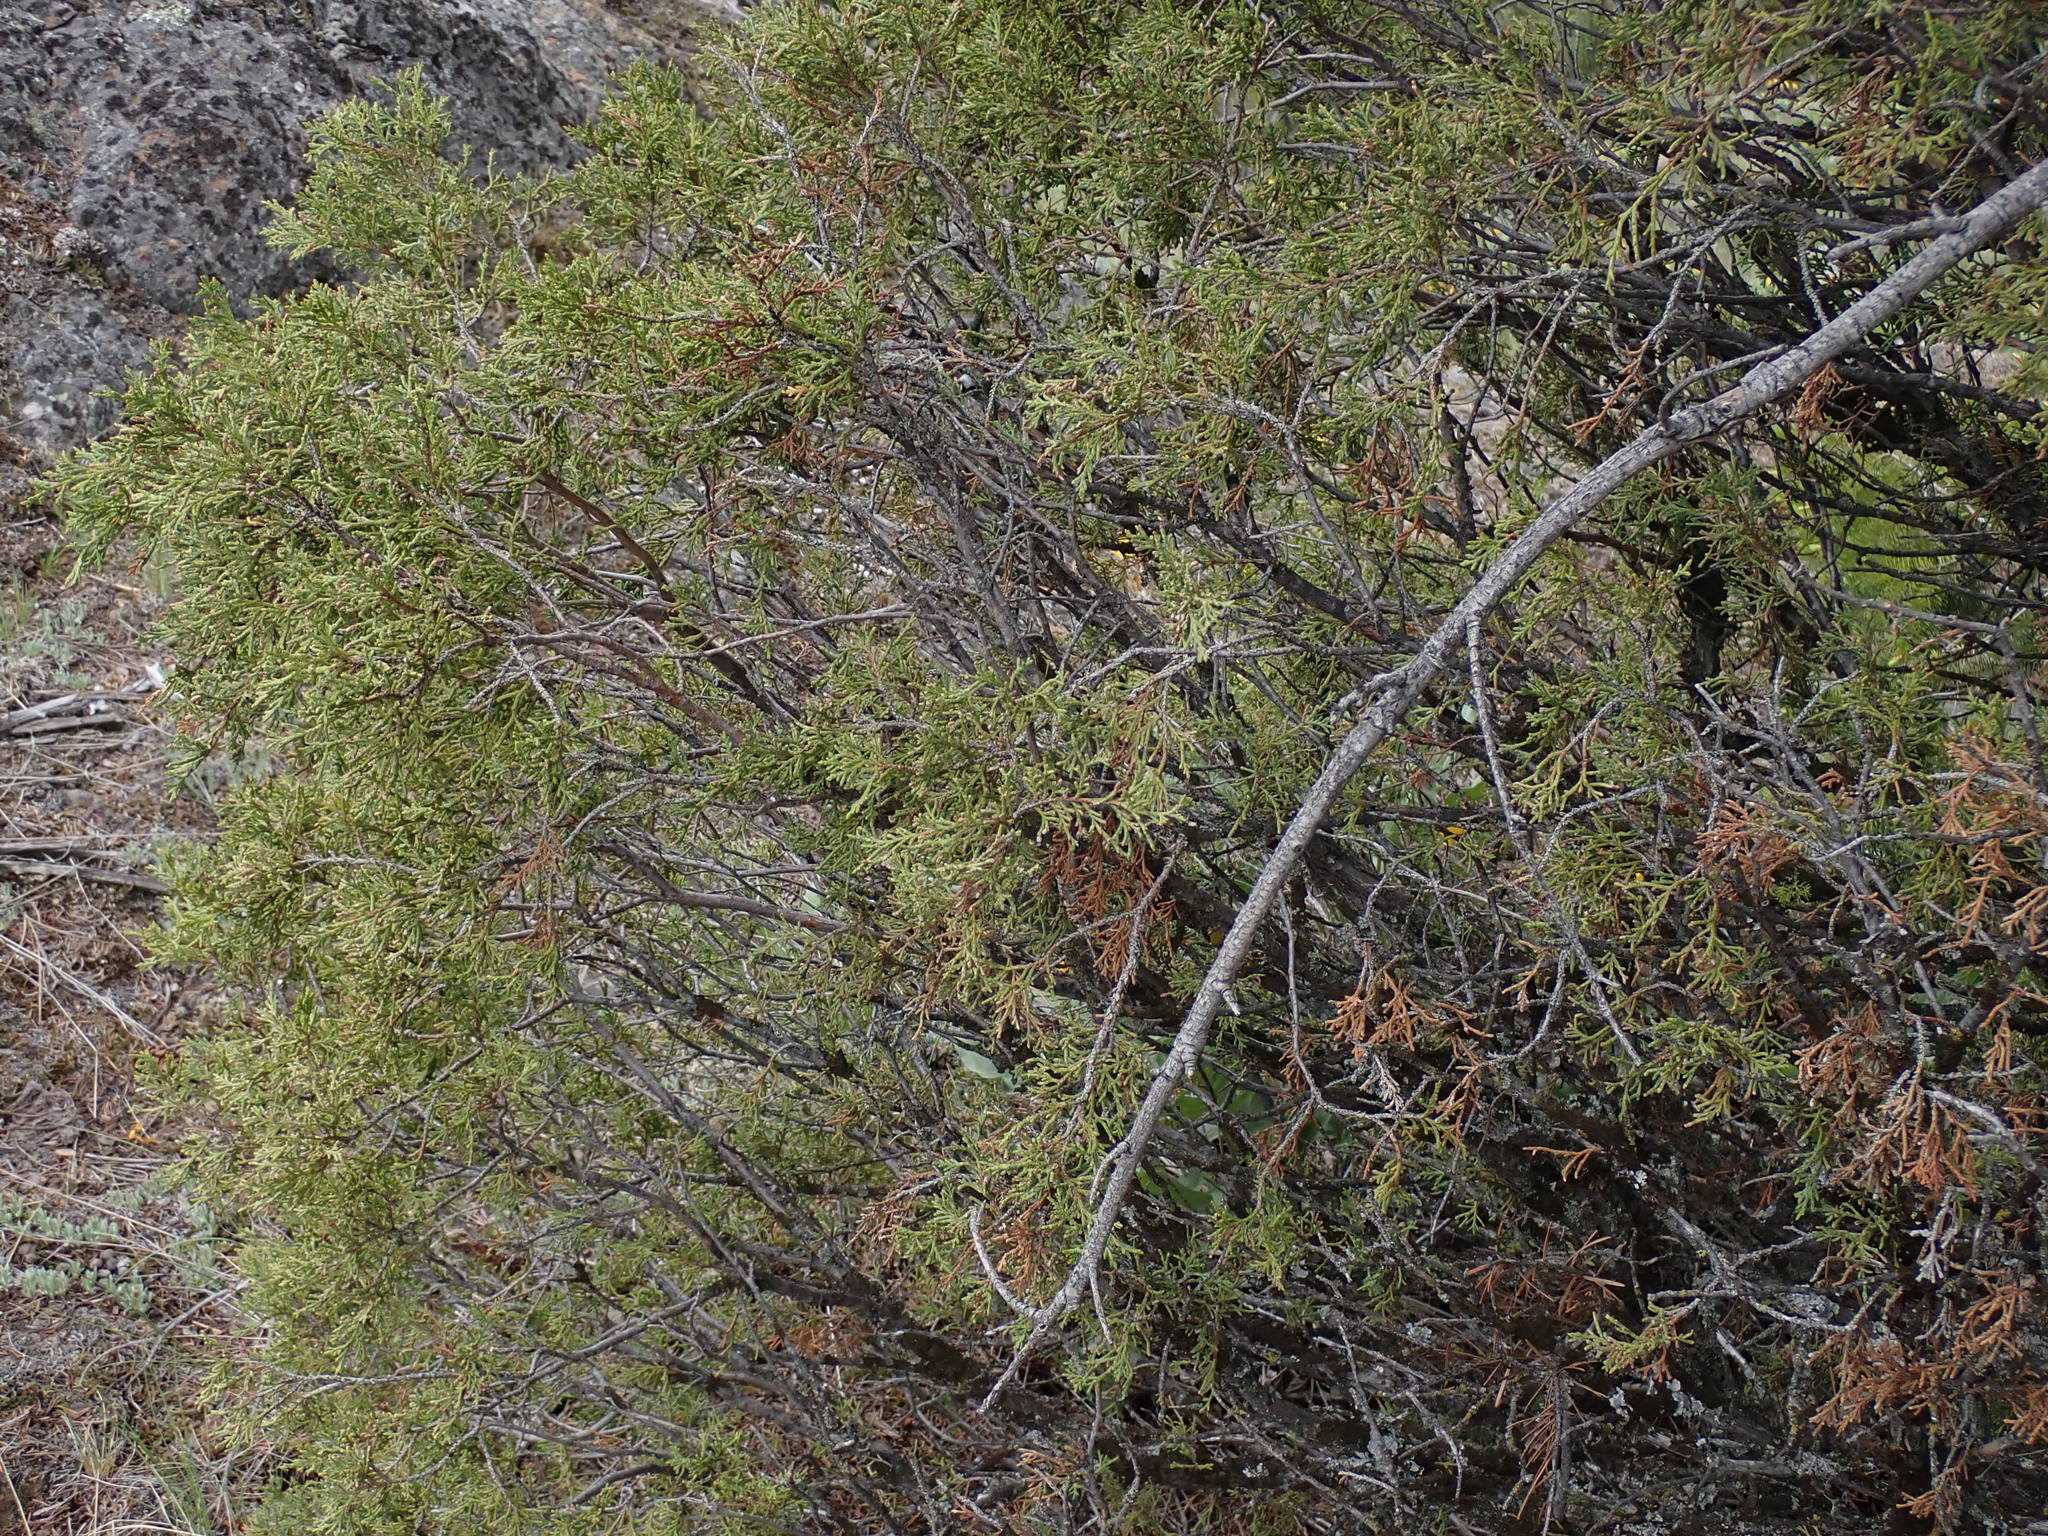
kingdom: Plantae
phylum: Tracheophyta
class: Pinopsida
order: Pinales
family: Cupressaceae
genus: Juniperus
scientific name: Juniperus scopulorum
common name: Rocky mountain juniper
